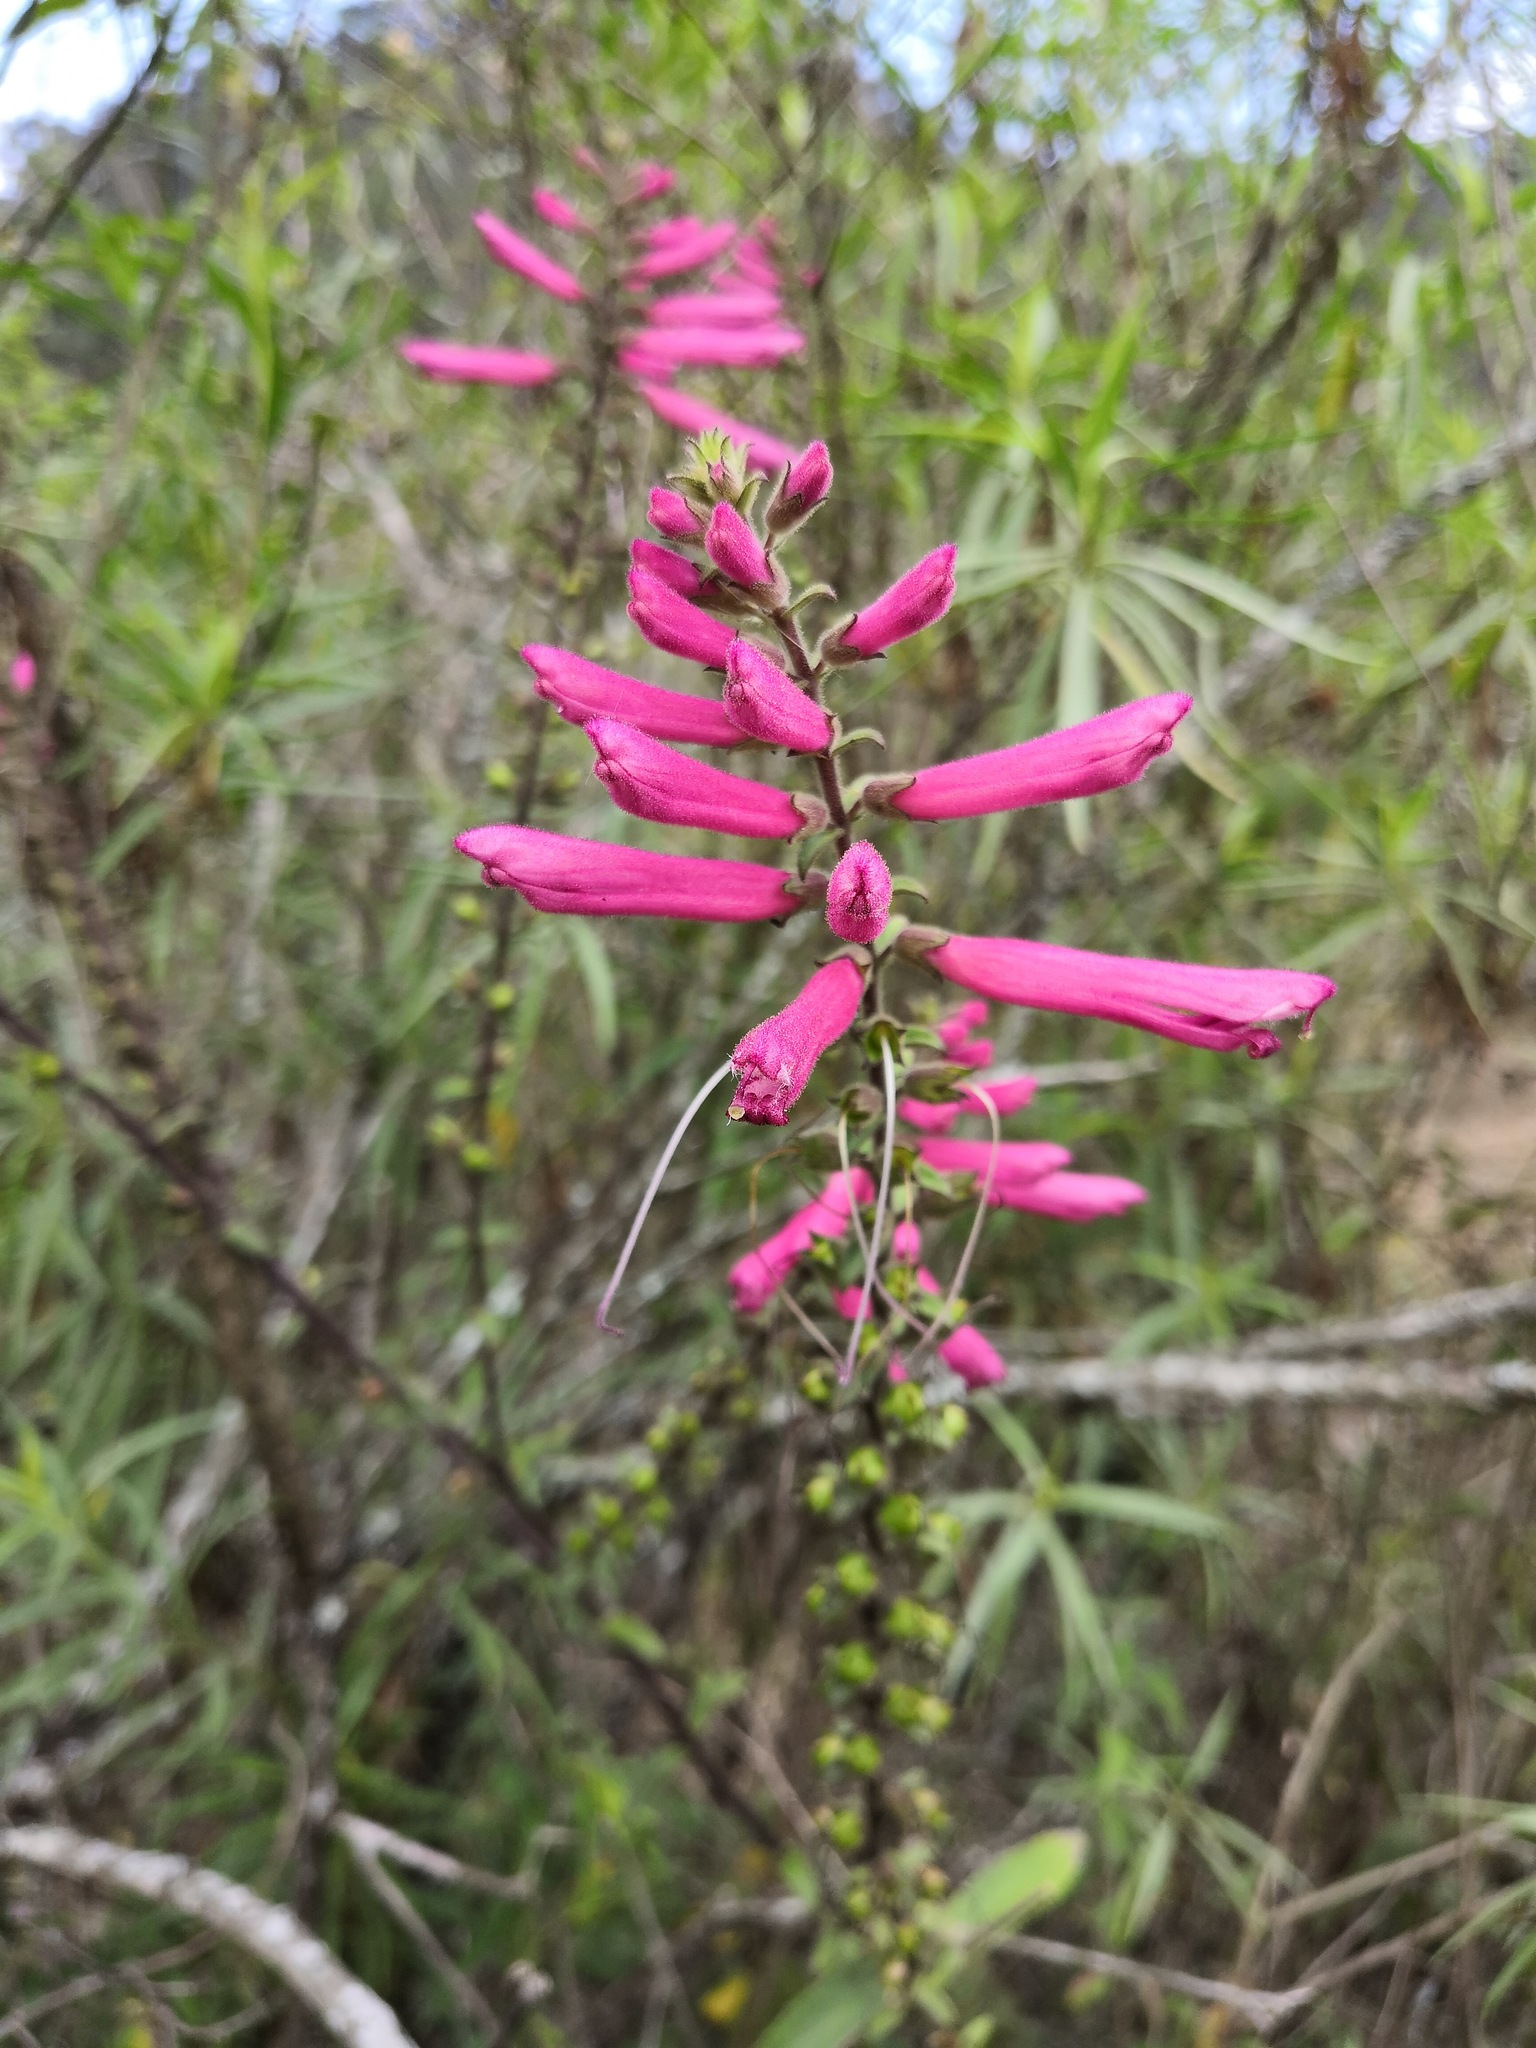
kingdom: Plantae
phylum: Tracheophyta
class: Magnoliopsida
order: Lamiales
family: Orobanchaceae
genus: Lamourouxia
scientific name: Lamourouxia pacifica
